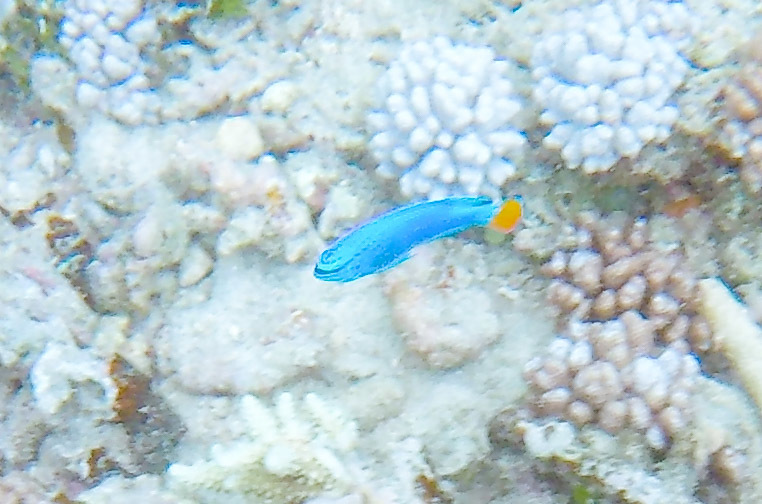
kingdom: Animalia
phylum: Chordata
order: Perciformes
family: Pomacentridae
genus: Chrysiptera
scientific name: Chrysiptera cyanea
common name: Blue devil
